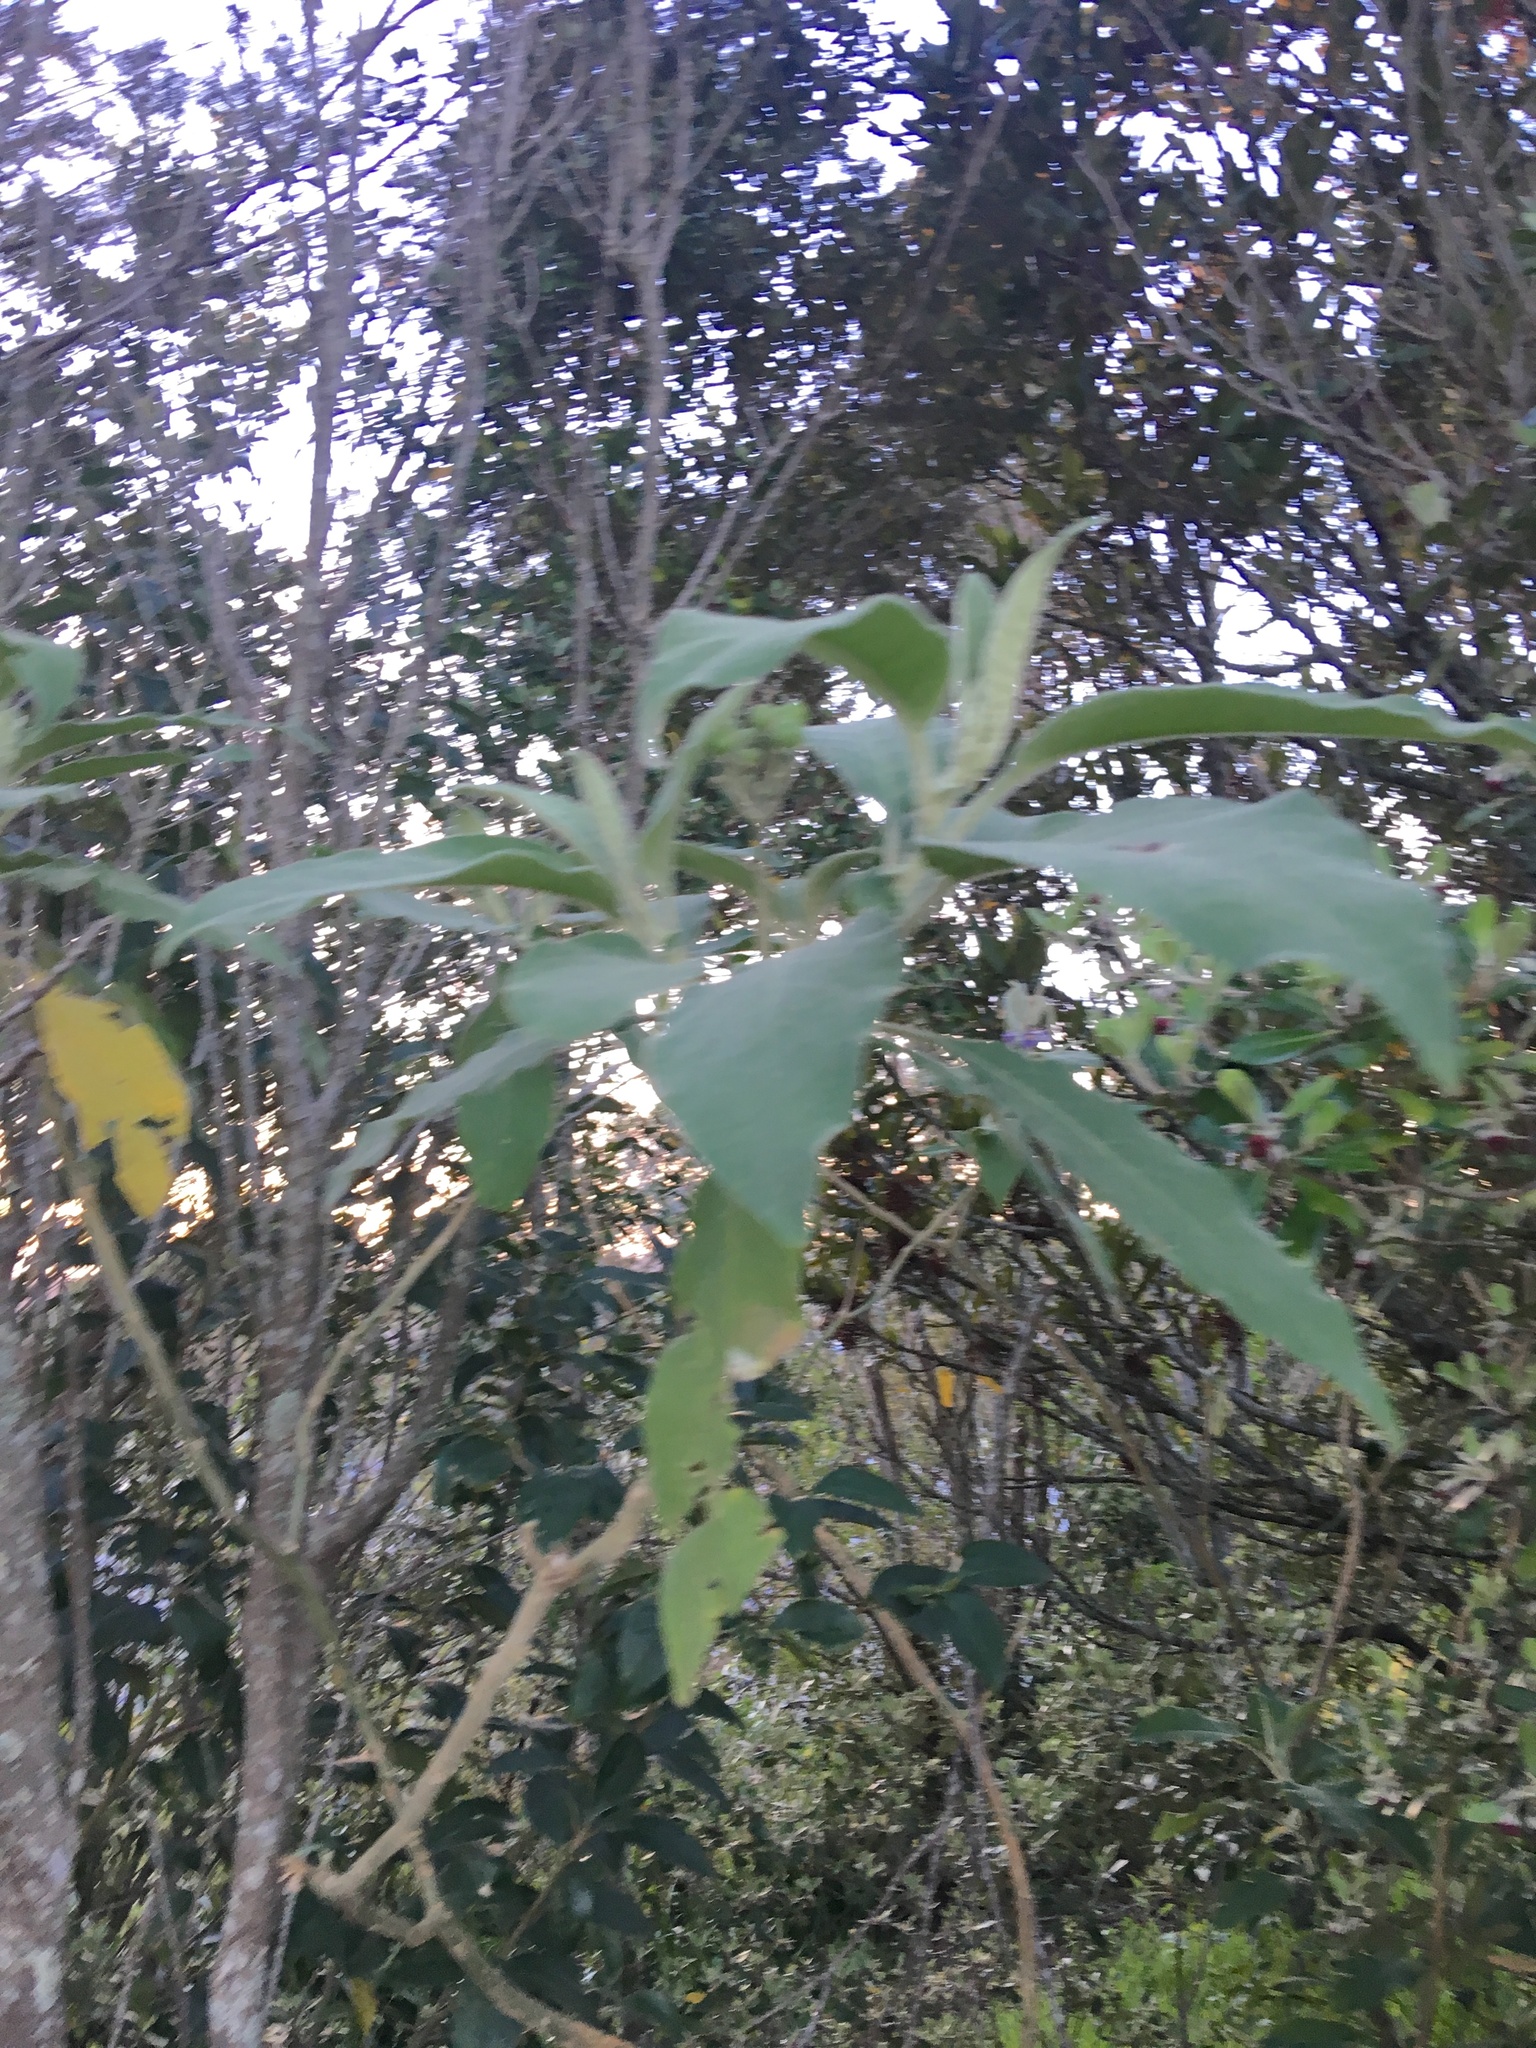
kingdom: Plantae
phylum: Tracheophyta
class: Magnoliopsida
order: Solanales
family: Solanaceae
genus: Solanum
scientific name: Solanum mauritianum
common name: Earleaf nightshade
